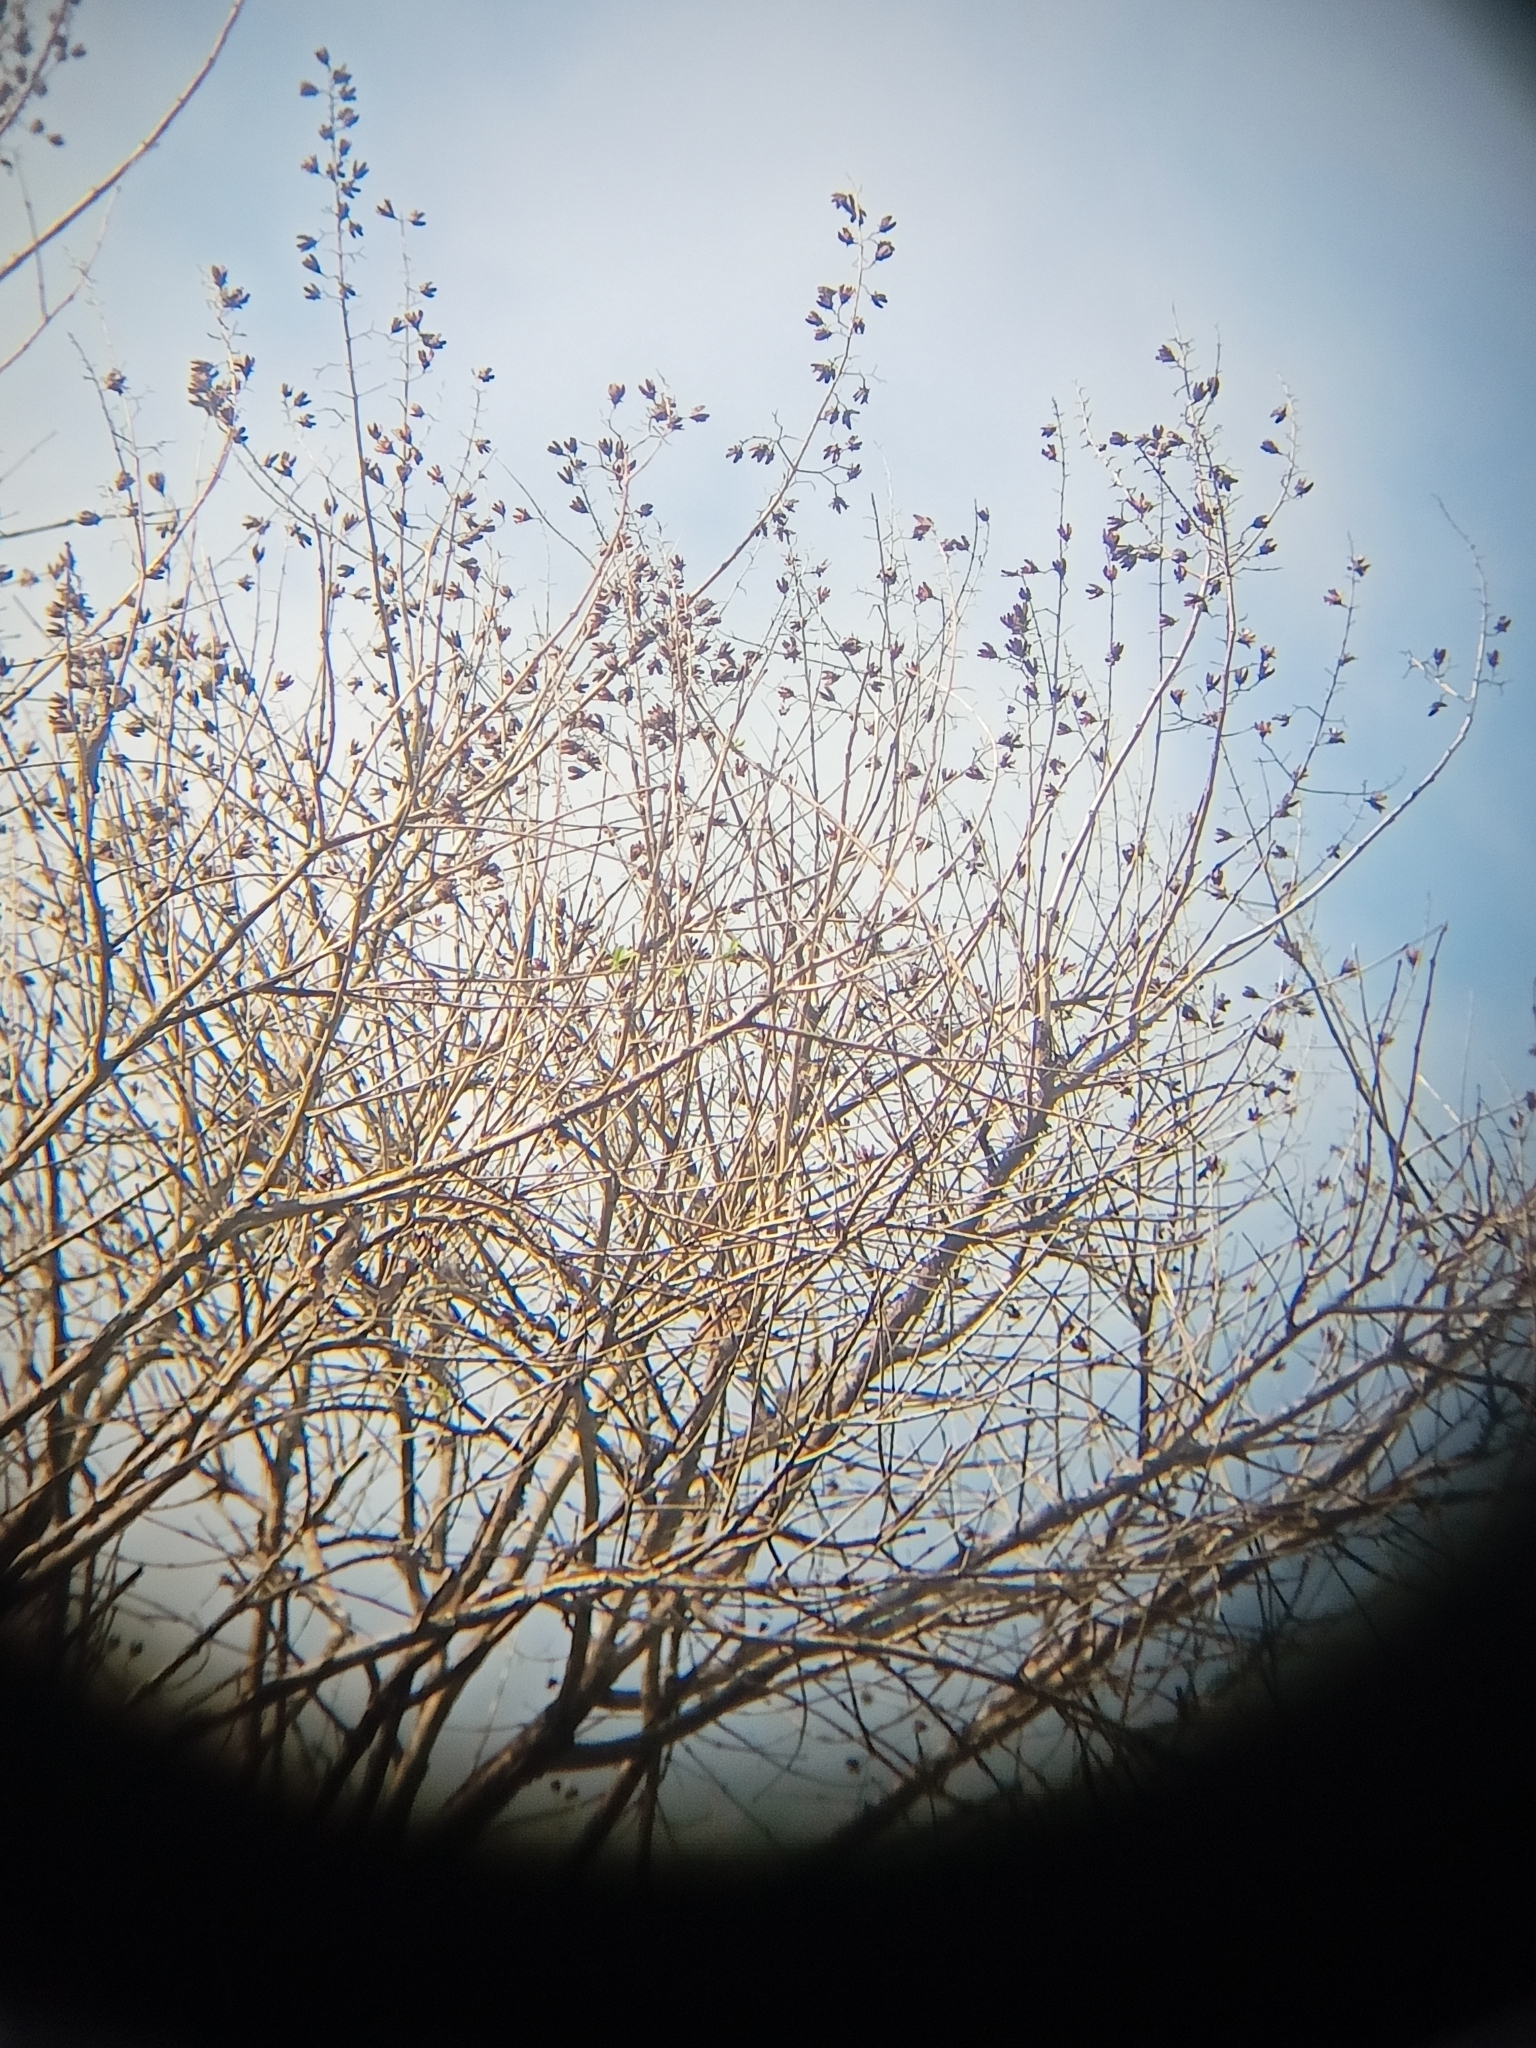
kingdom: Plantae
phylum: Tracheophyta
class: Magnoliopsida
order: Myrtales
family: Lythraceae
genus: Lagerstroemia
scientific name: Lagerstroemia hypoleuca
